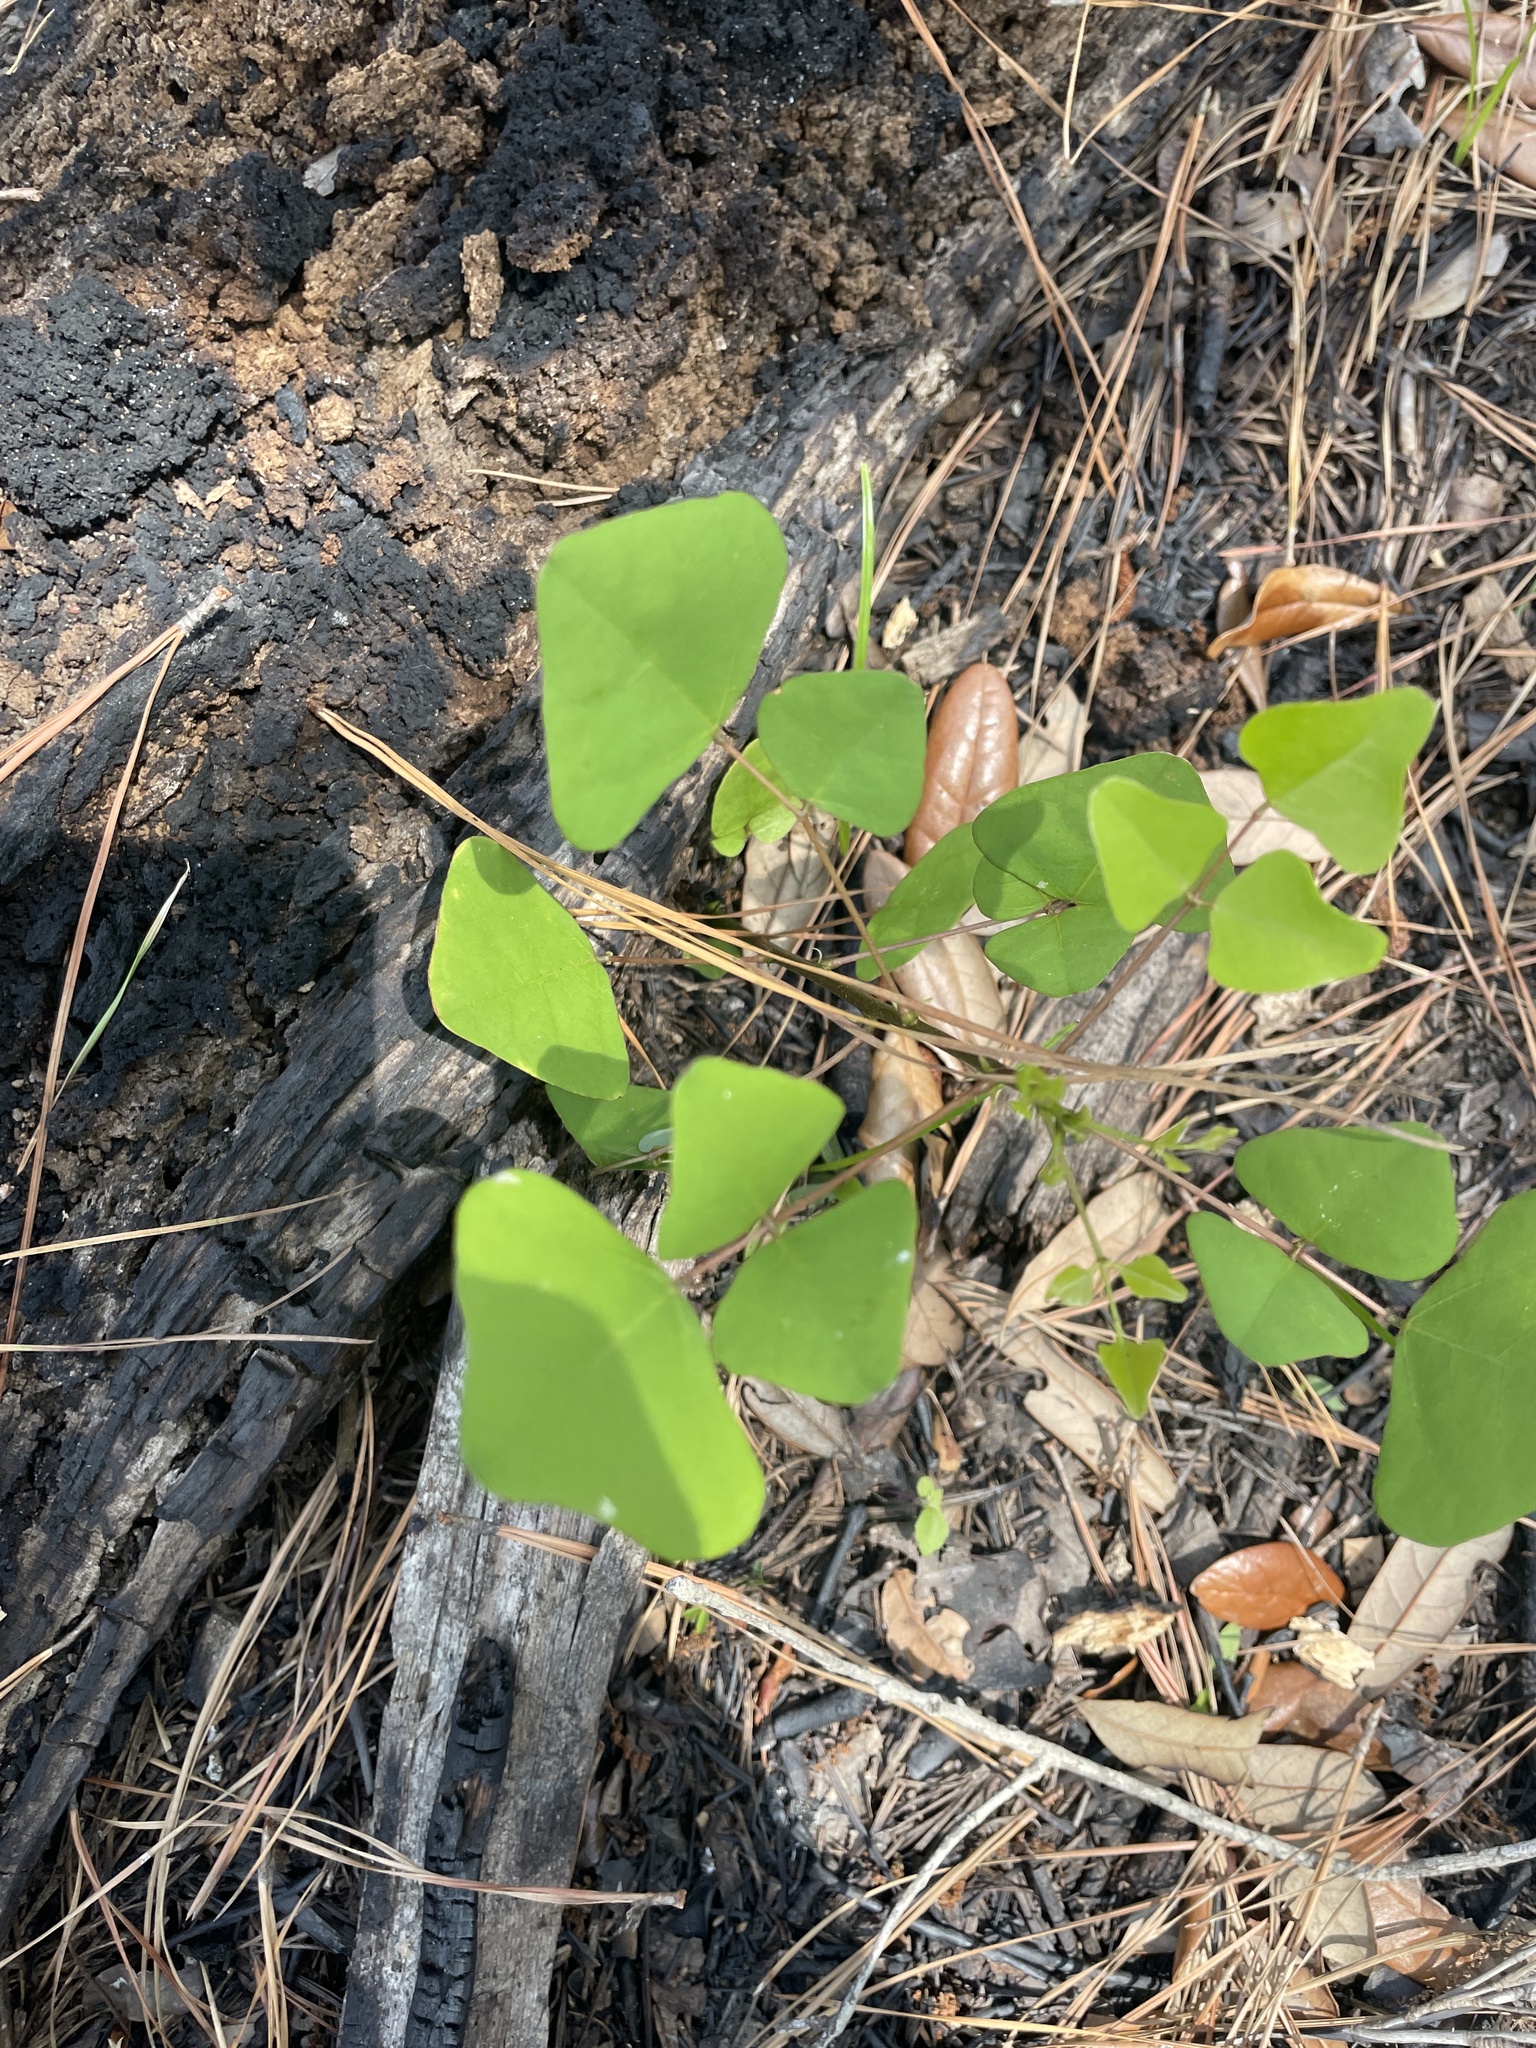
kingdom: Plantae
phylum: Tracheophyta
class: Magnoliopsida
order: Fabales
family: Fabaceae
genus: Erythrina
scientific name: Erythrina herbacea
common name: Coral-bean
